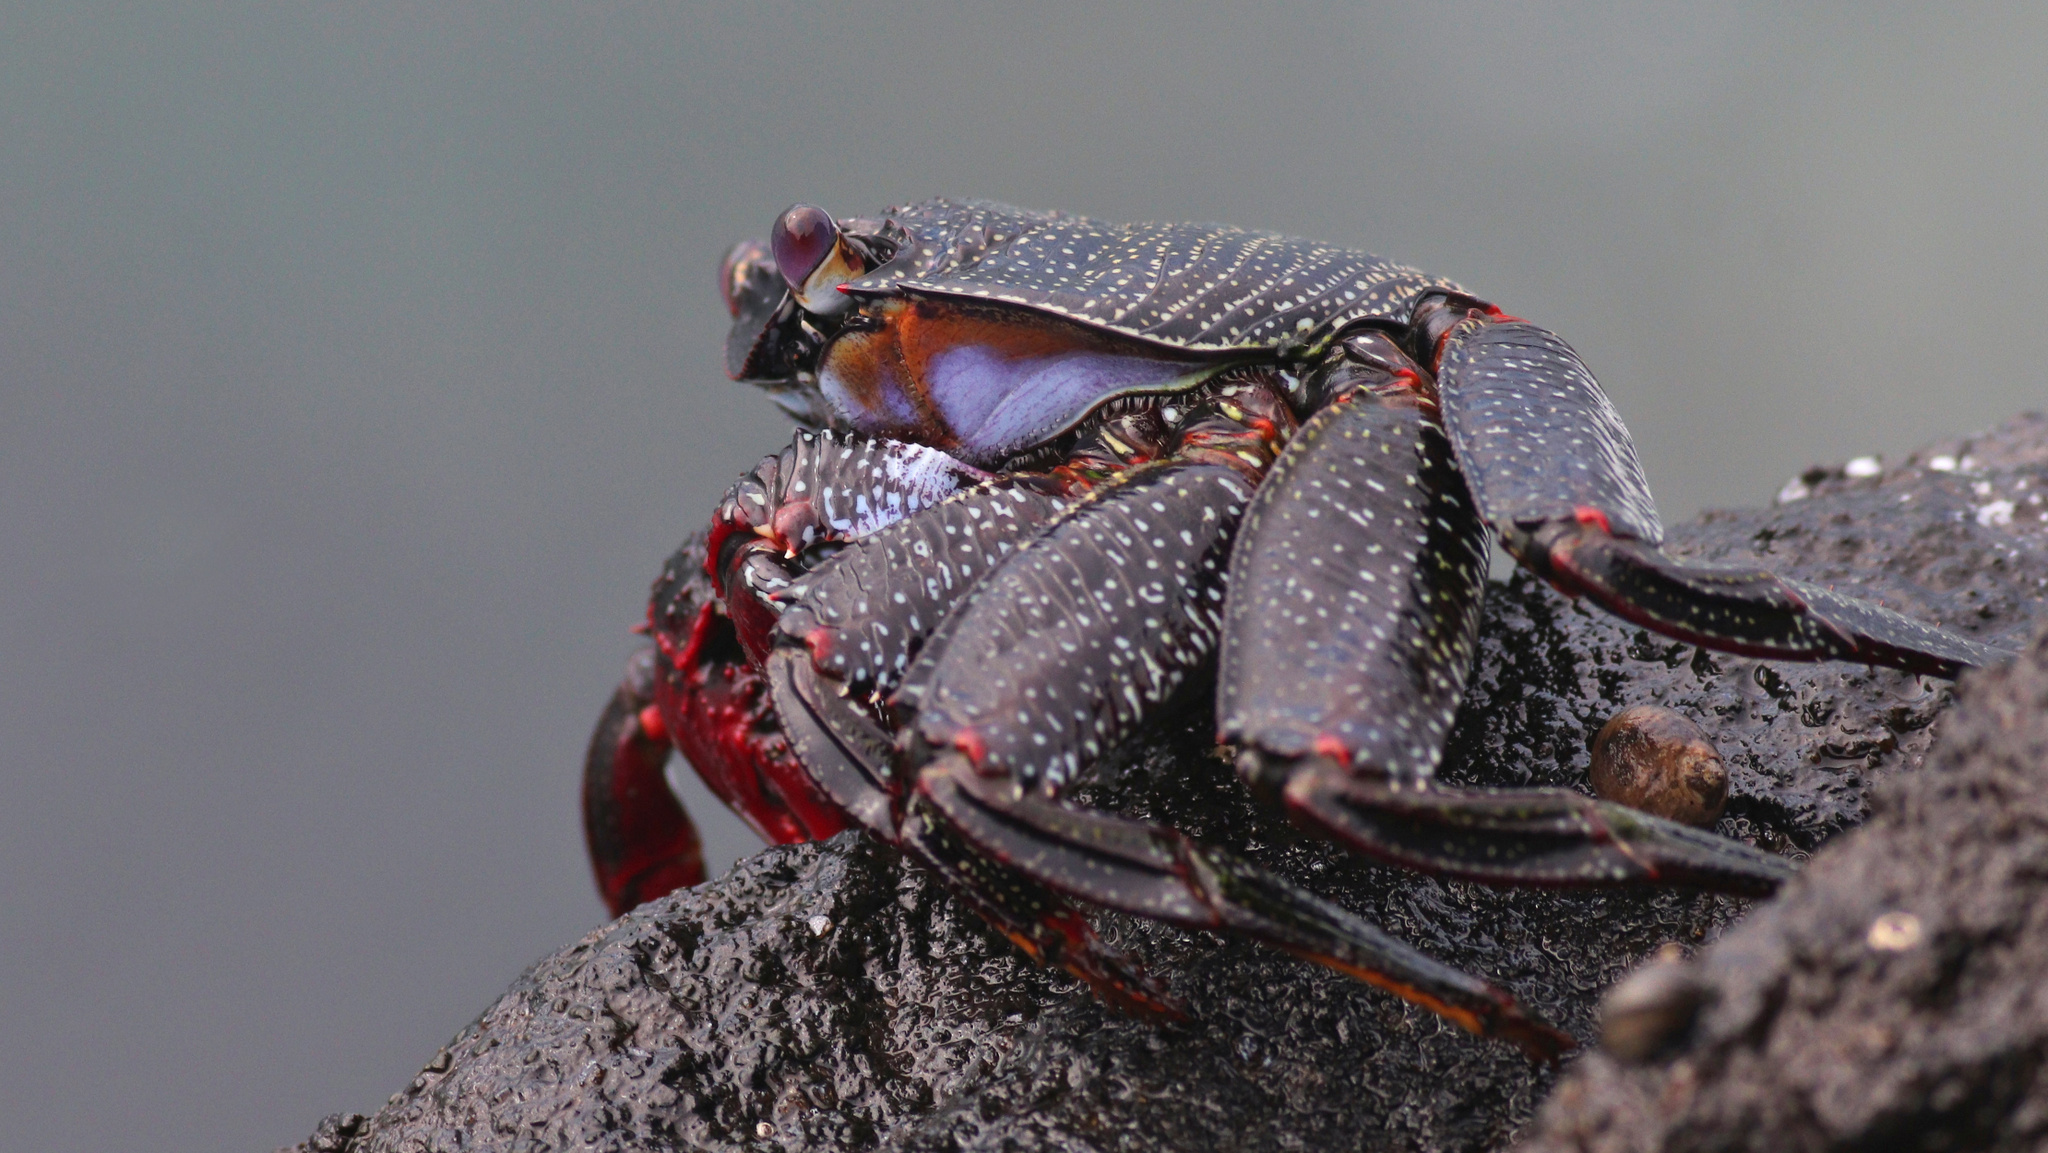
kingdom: Animalia
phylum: Arthropoda
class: Malacostraca
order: Decapoda
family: Grapsidae
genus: Grapsus
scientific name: Grapsus adscensionis
